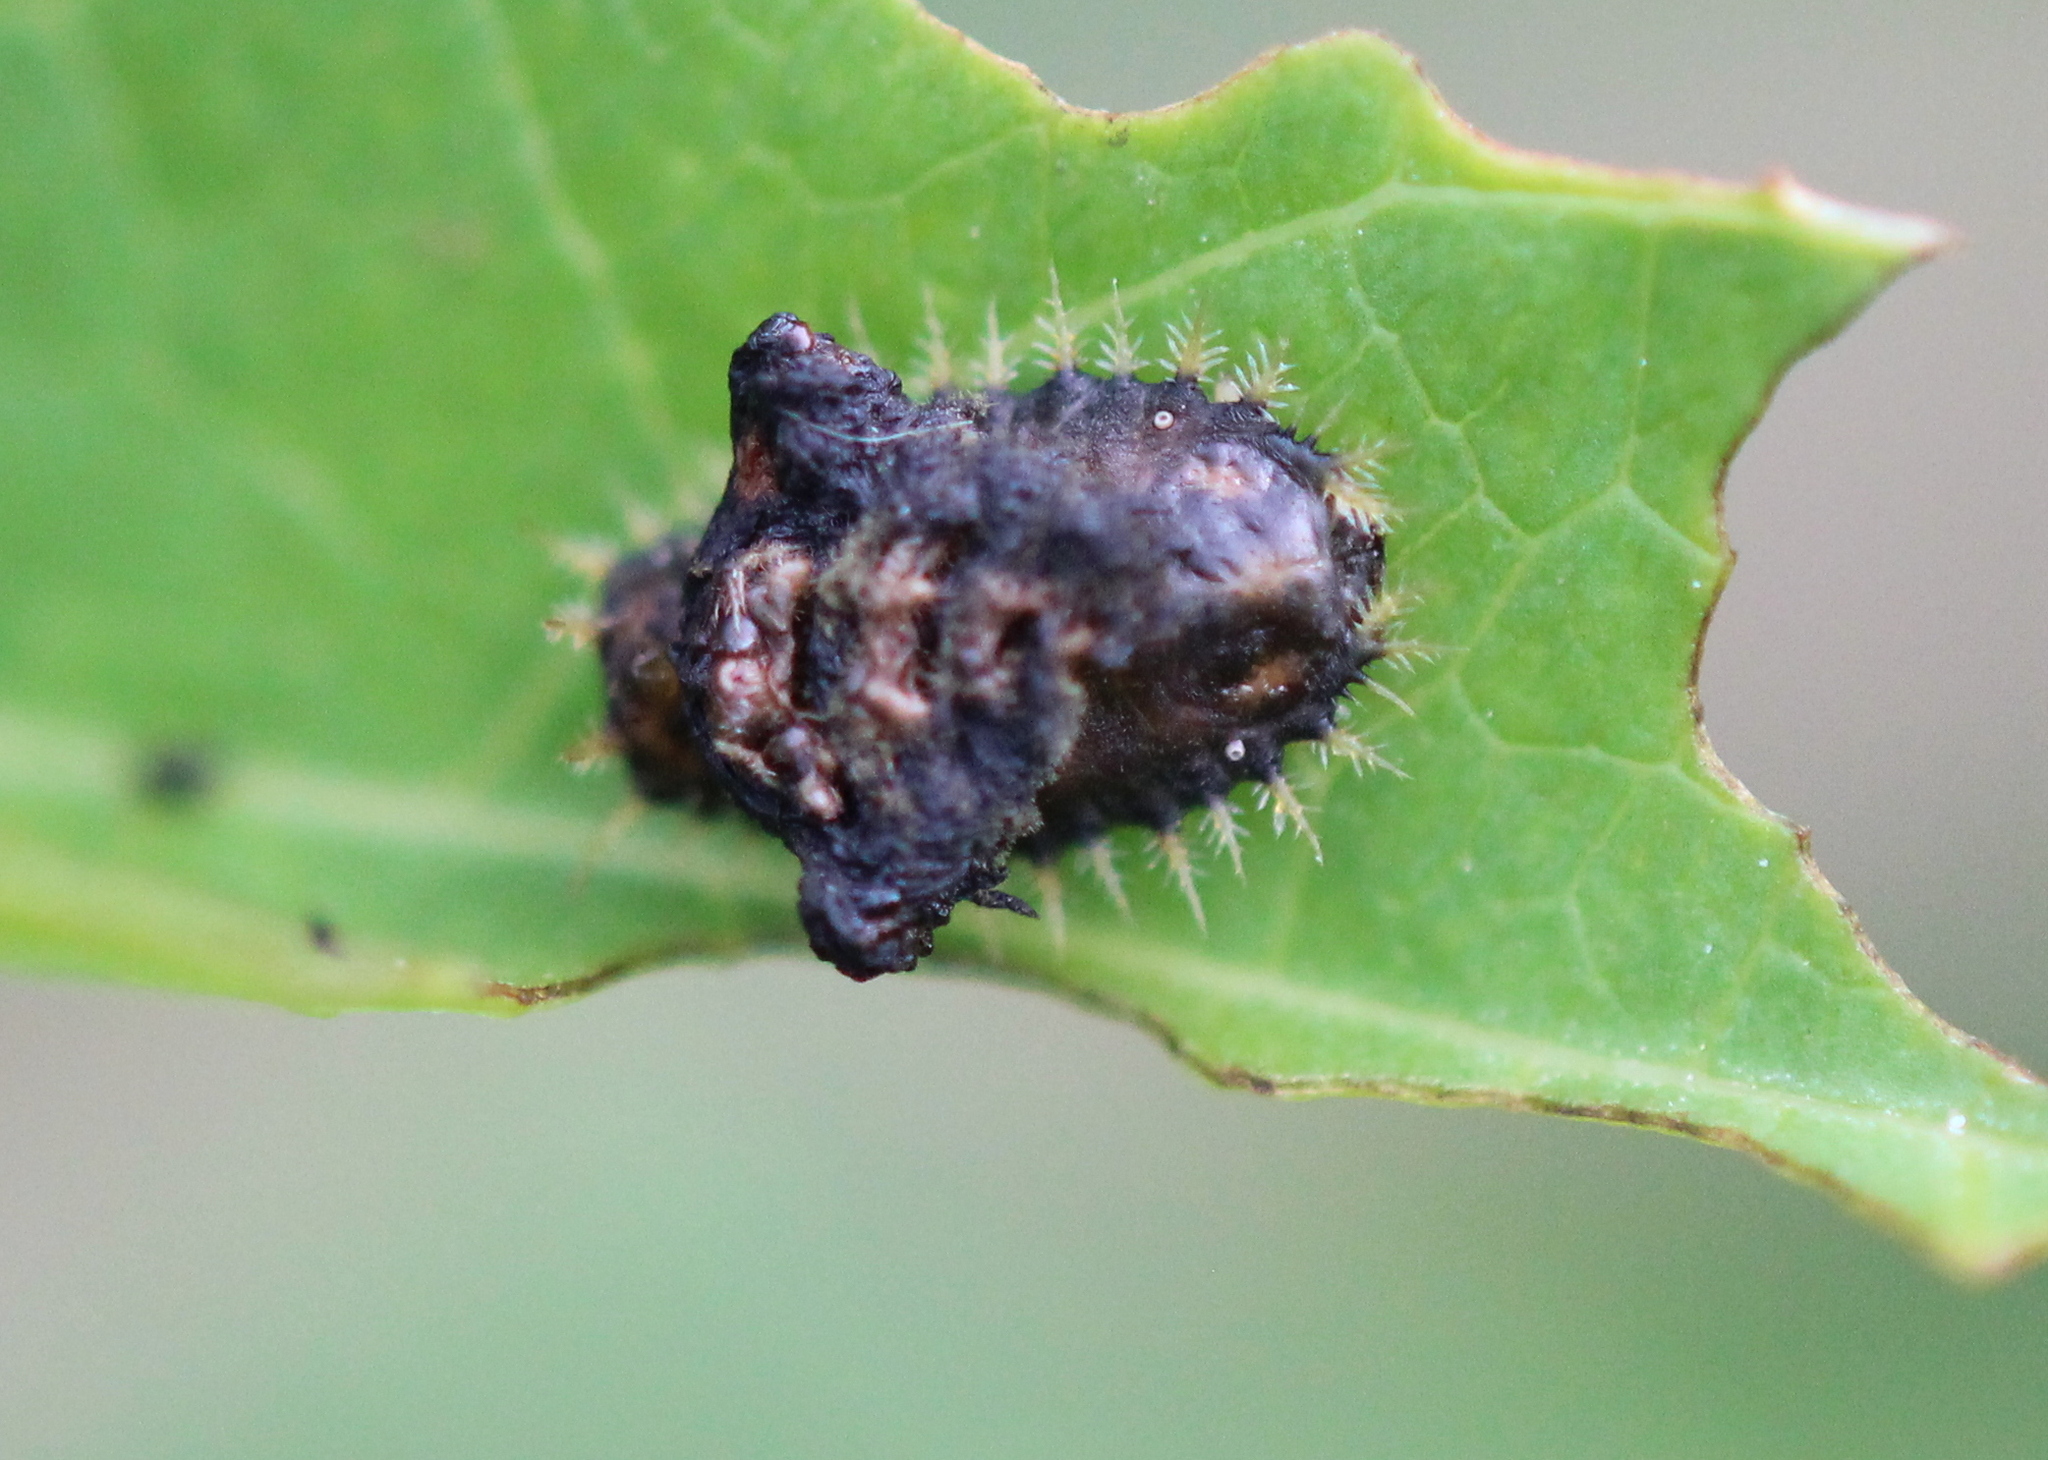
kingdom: Animalia
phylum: Arthropoda
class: Insecta
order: Coleoptera
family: Chrysomelidae
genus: Charidotella
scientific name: Charidotella sexpunctata
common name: Golden tortoise beetle
